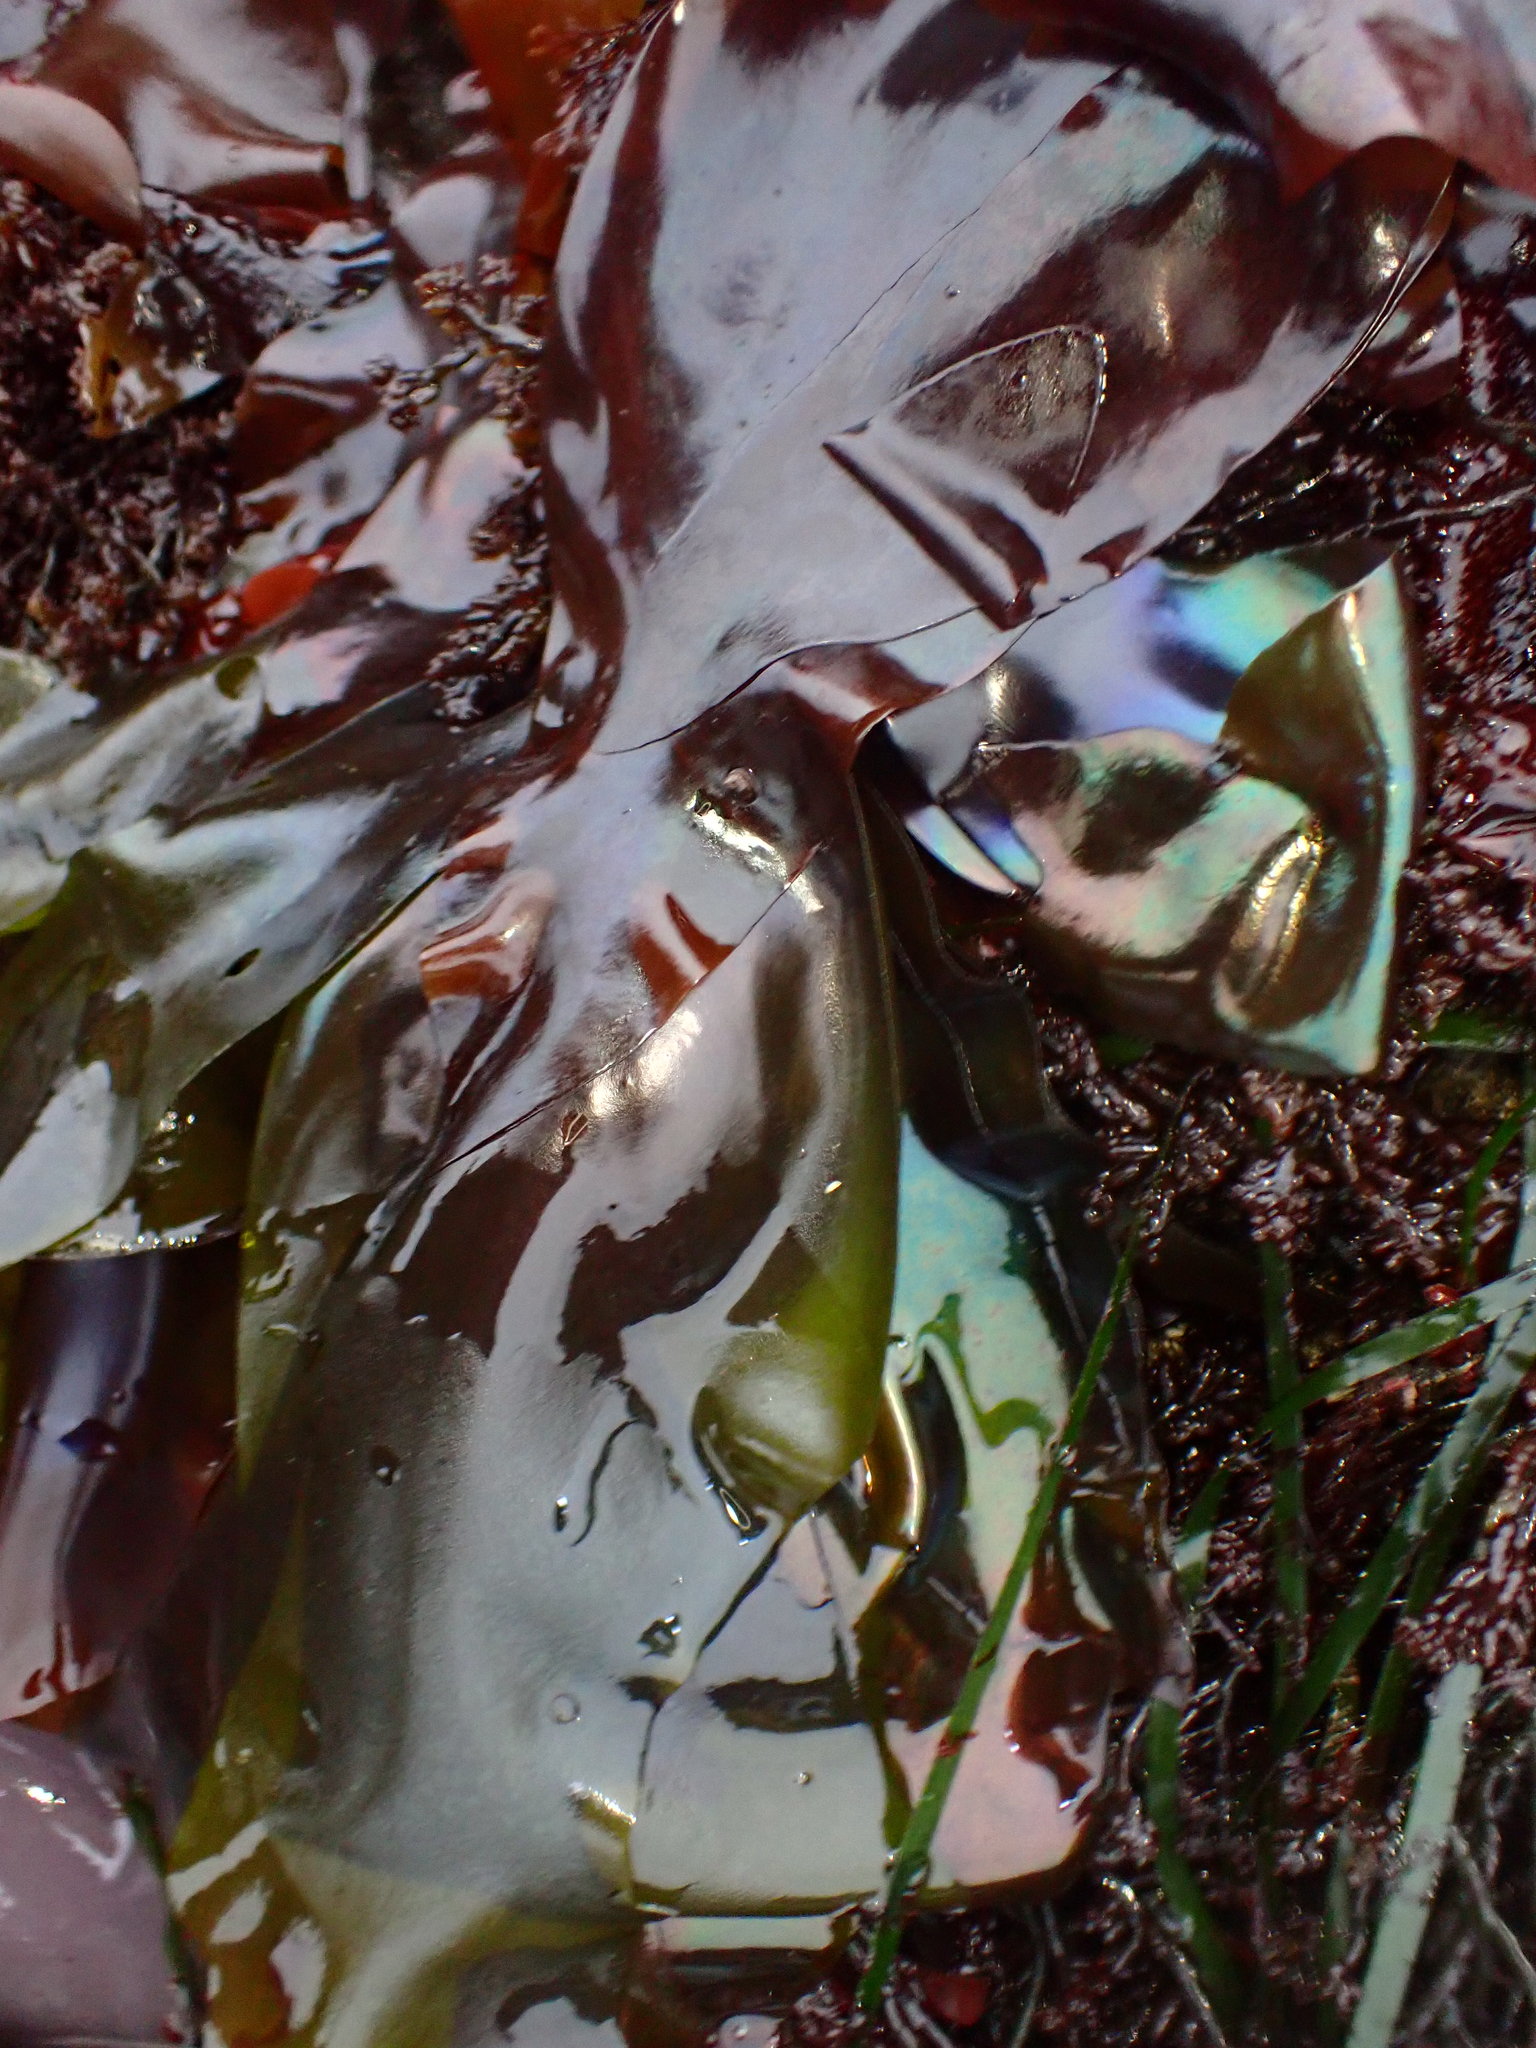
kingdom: Plantae
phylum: Rhodophyta
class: Florideophyceae
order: Gigartinales
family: Gigartinaceae
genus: Mazzaella
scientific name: Mazzaella splendens
